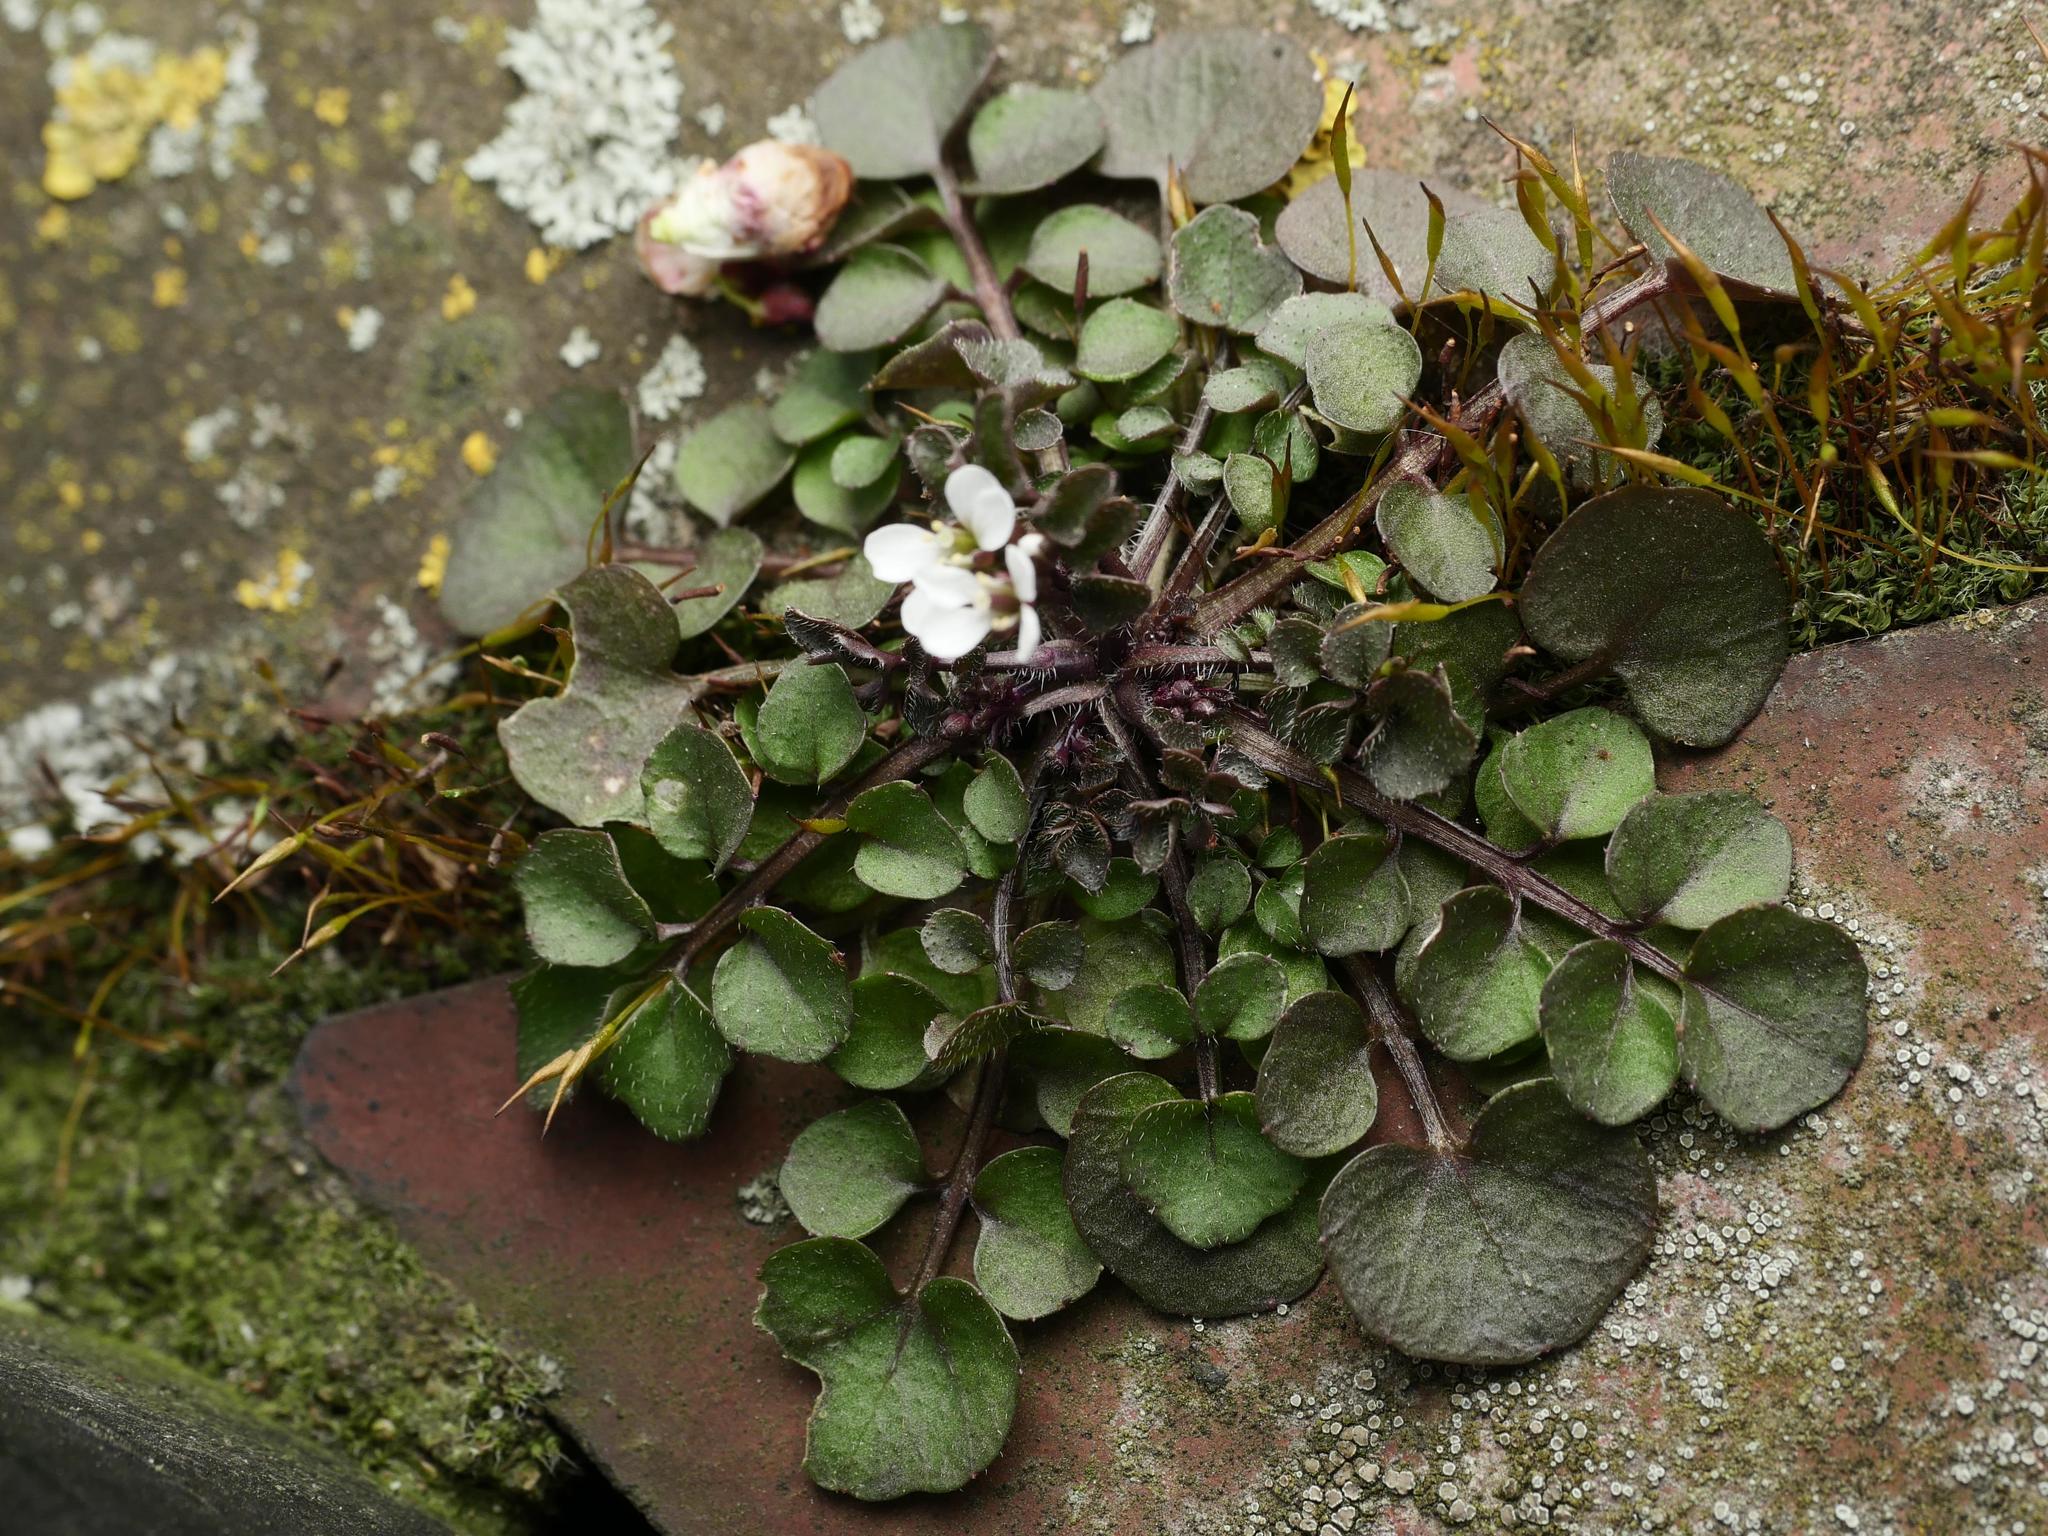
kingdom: Plantae
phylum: Tracheophyta
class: Magnoliopsida
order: Brassicales
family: Brassicaceae
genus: Cardamine
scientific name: Cardamine hirsuta
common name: Hairy bittercress
